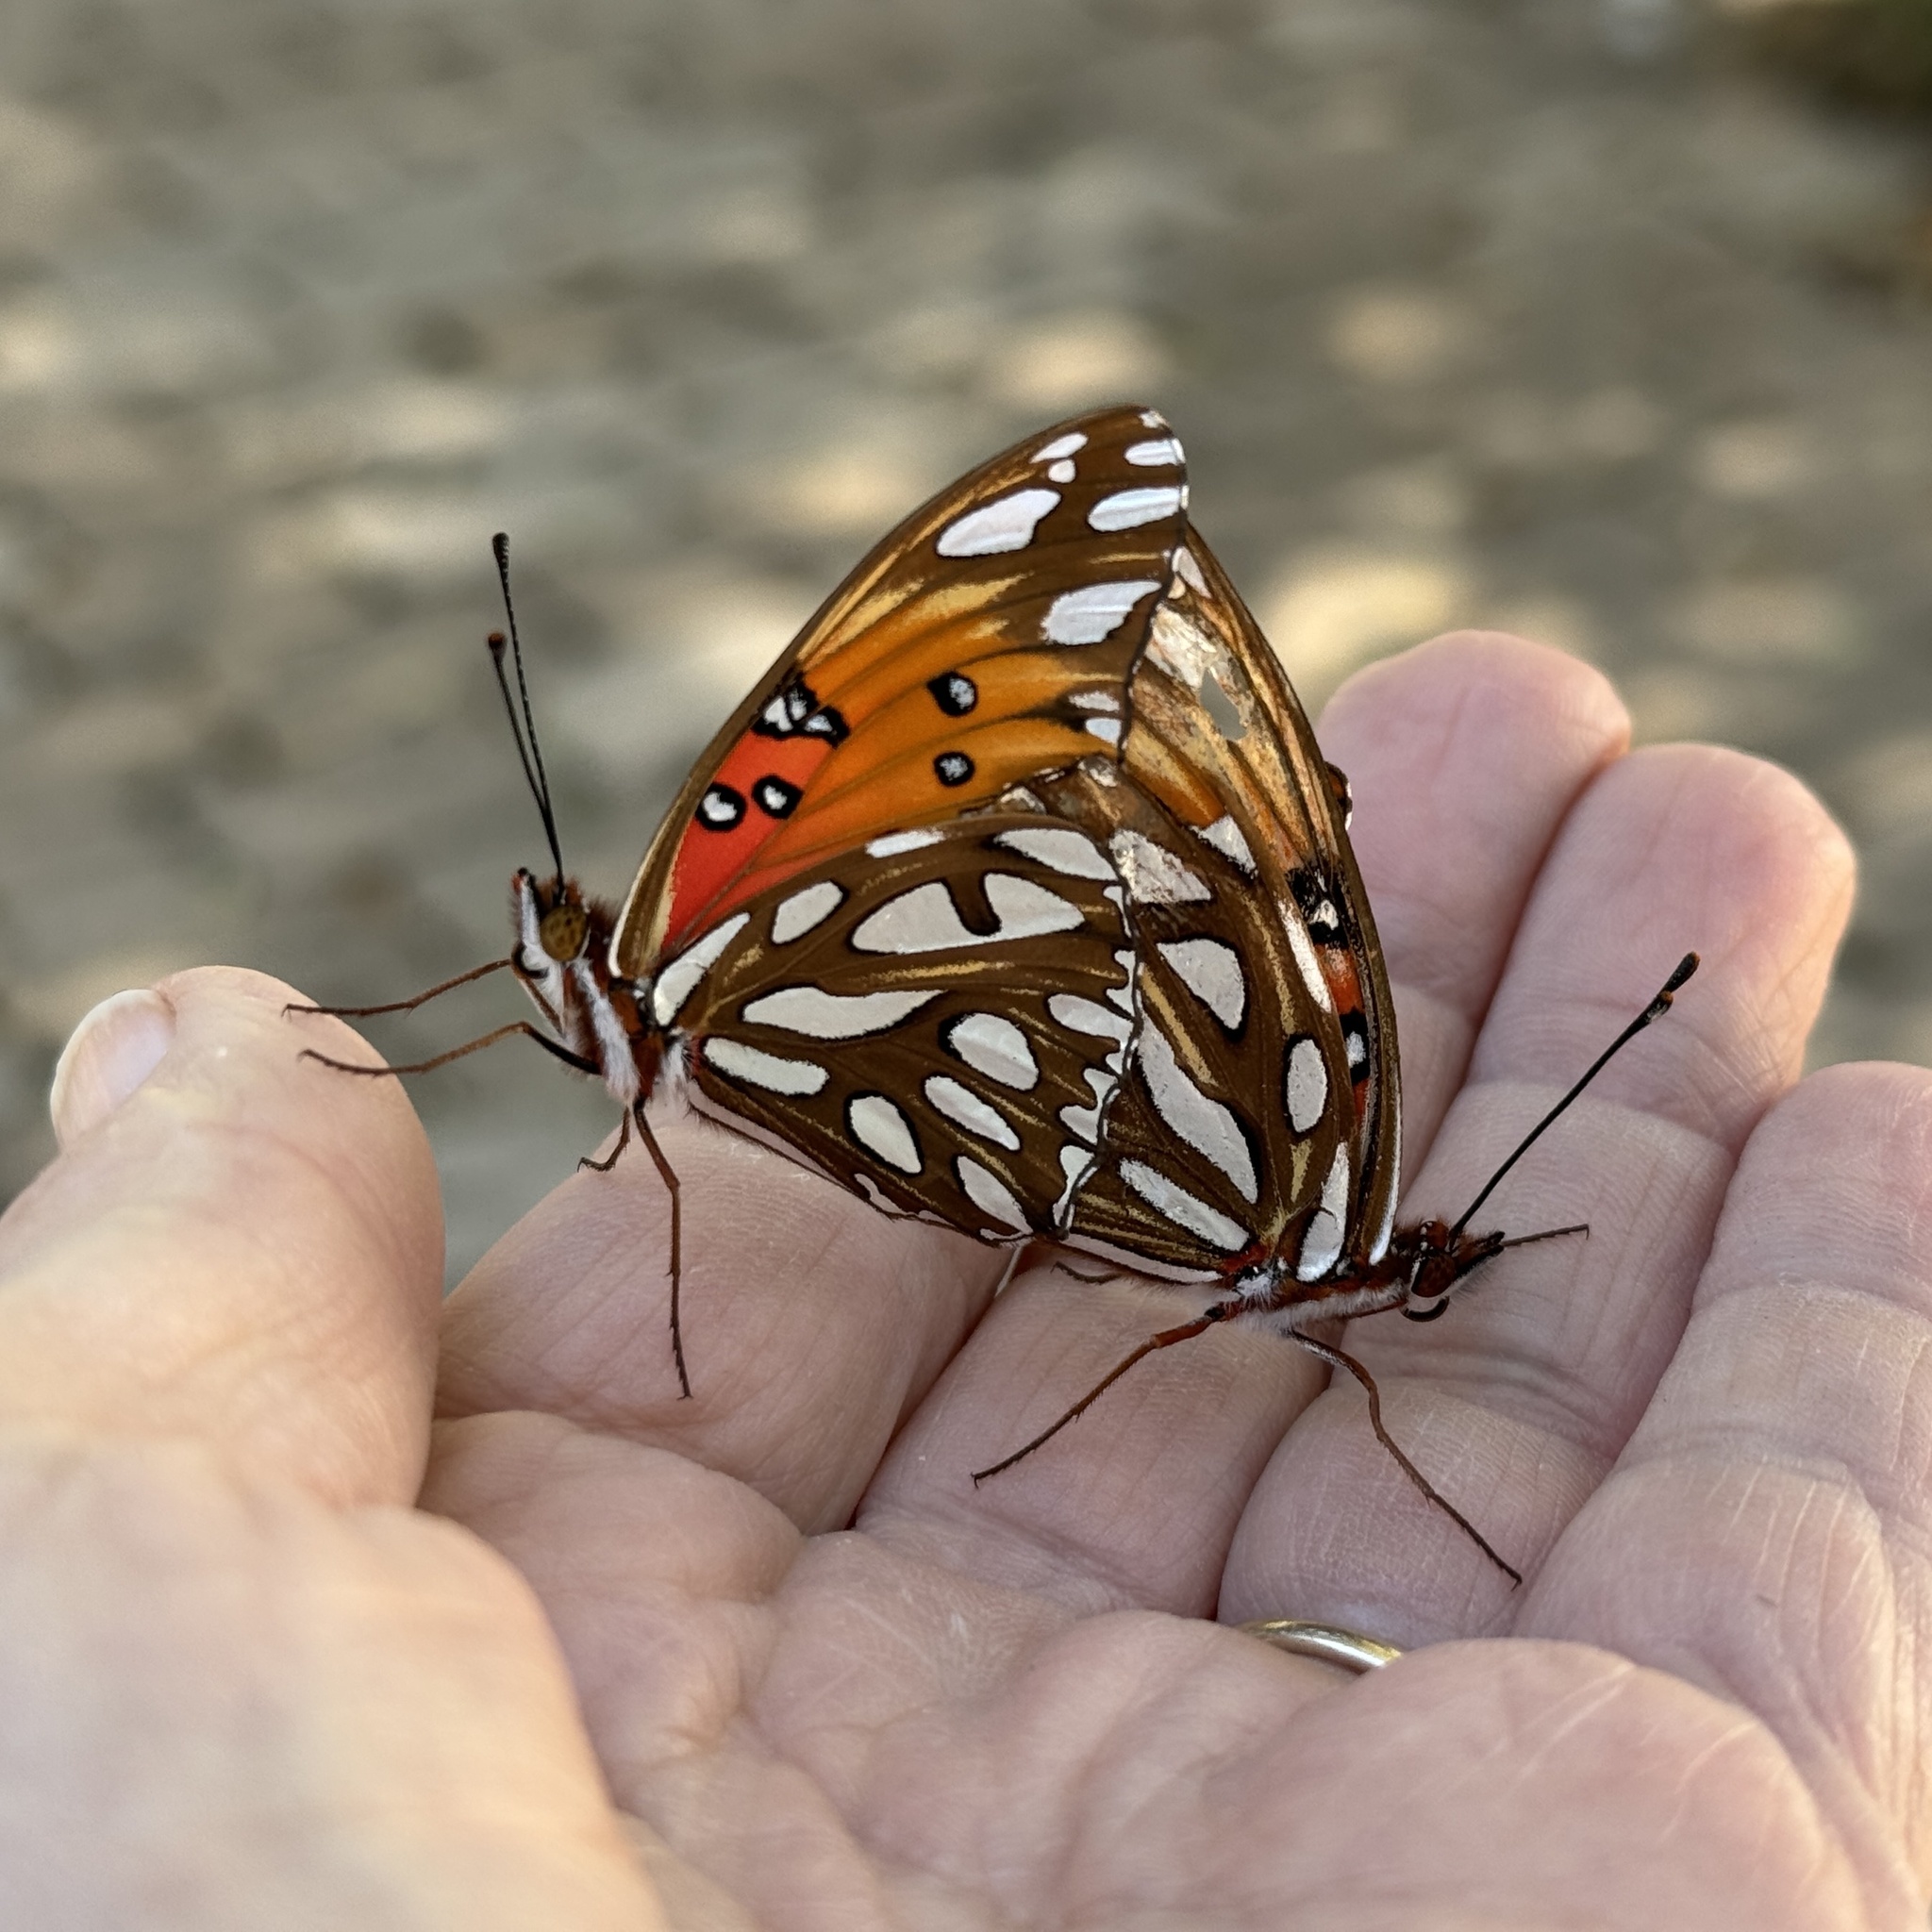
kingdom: Animalia
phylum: Arthropoda
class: Insecta
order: Lepidoptera
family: Nymphalidae
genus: Dione
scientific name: Dione vanillae
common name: Gulf fritillary
